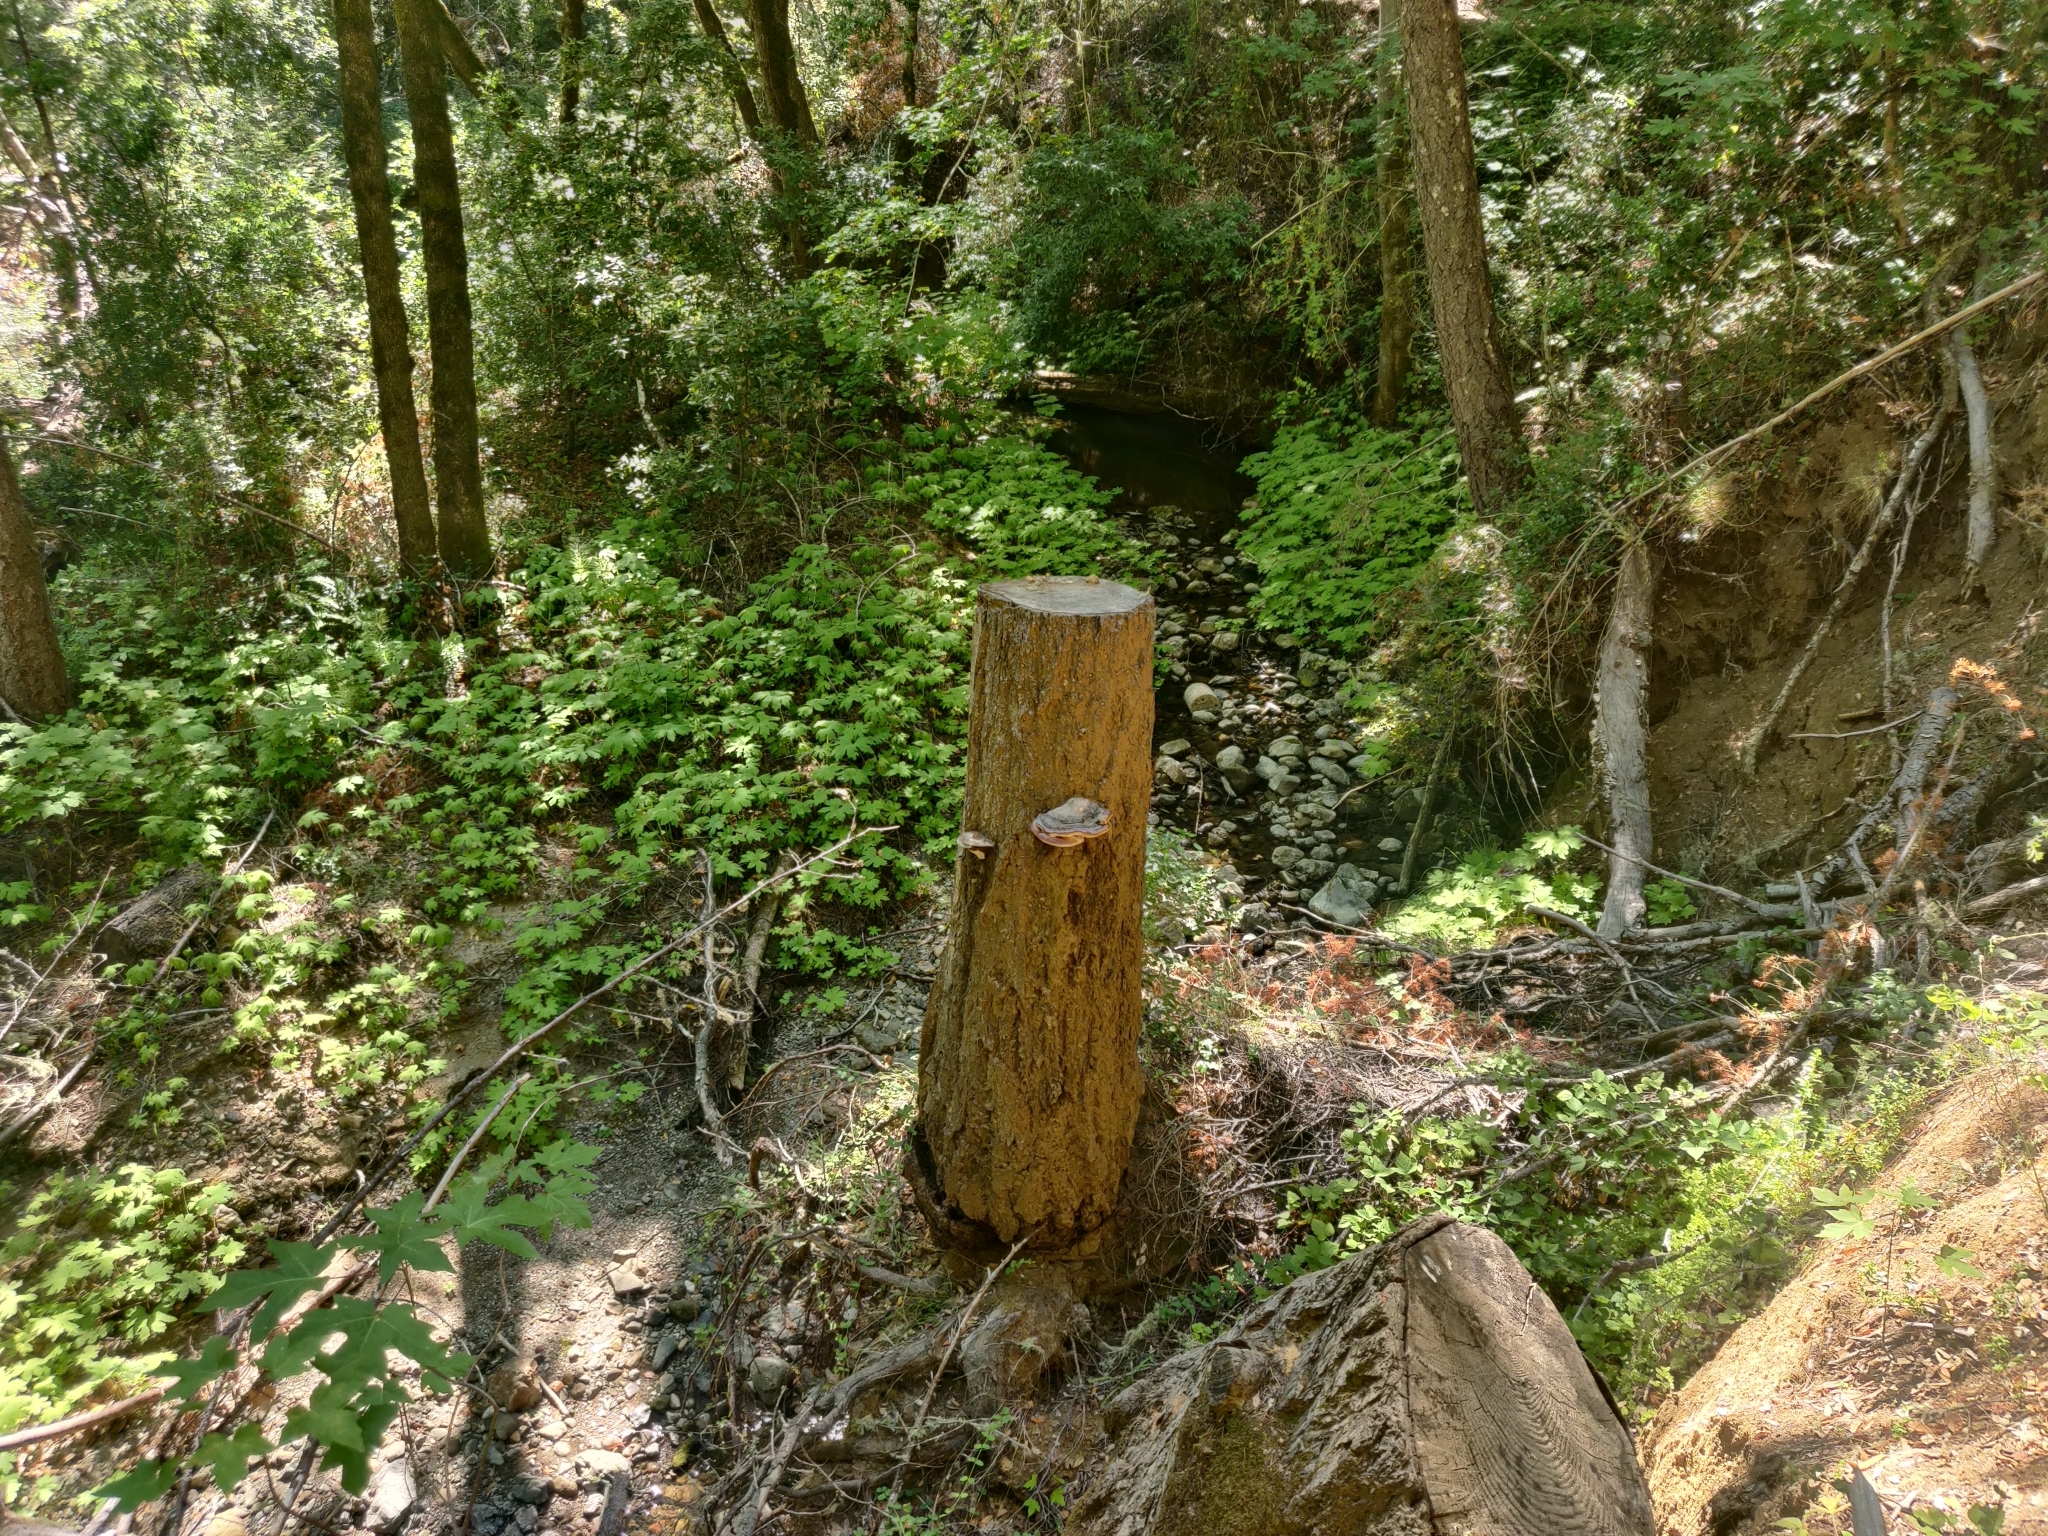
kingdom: Fungi
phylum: Basidiomycota
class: Agaricomycetes
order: Polyporales
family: Fomitopsidaceae
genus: Fomitopsis
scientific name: Fomitopsis mounceae
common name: Northern red belt
